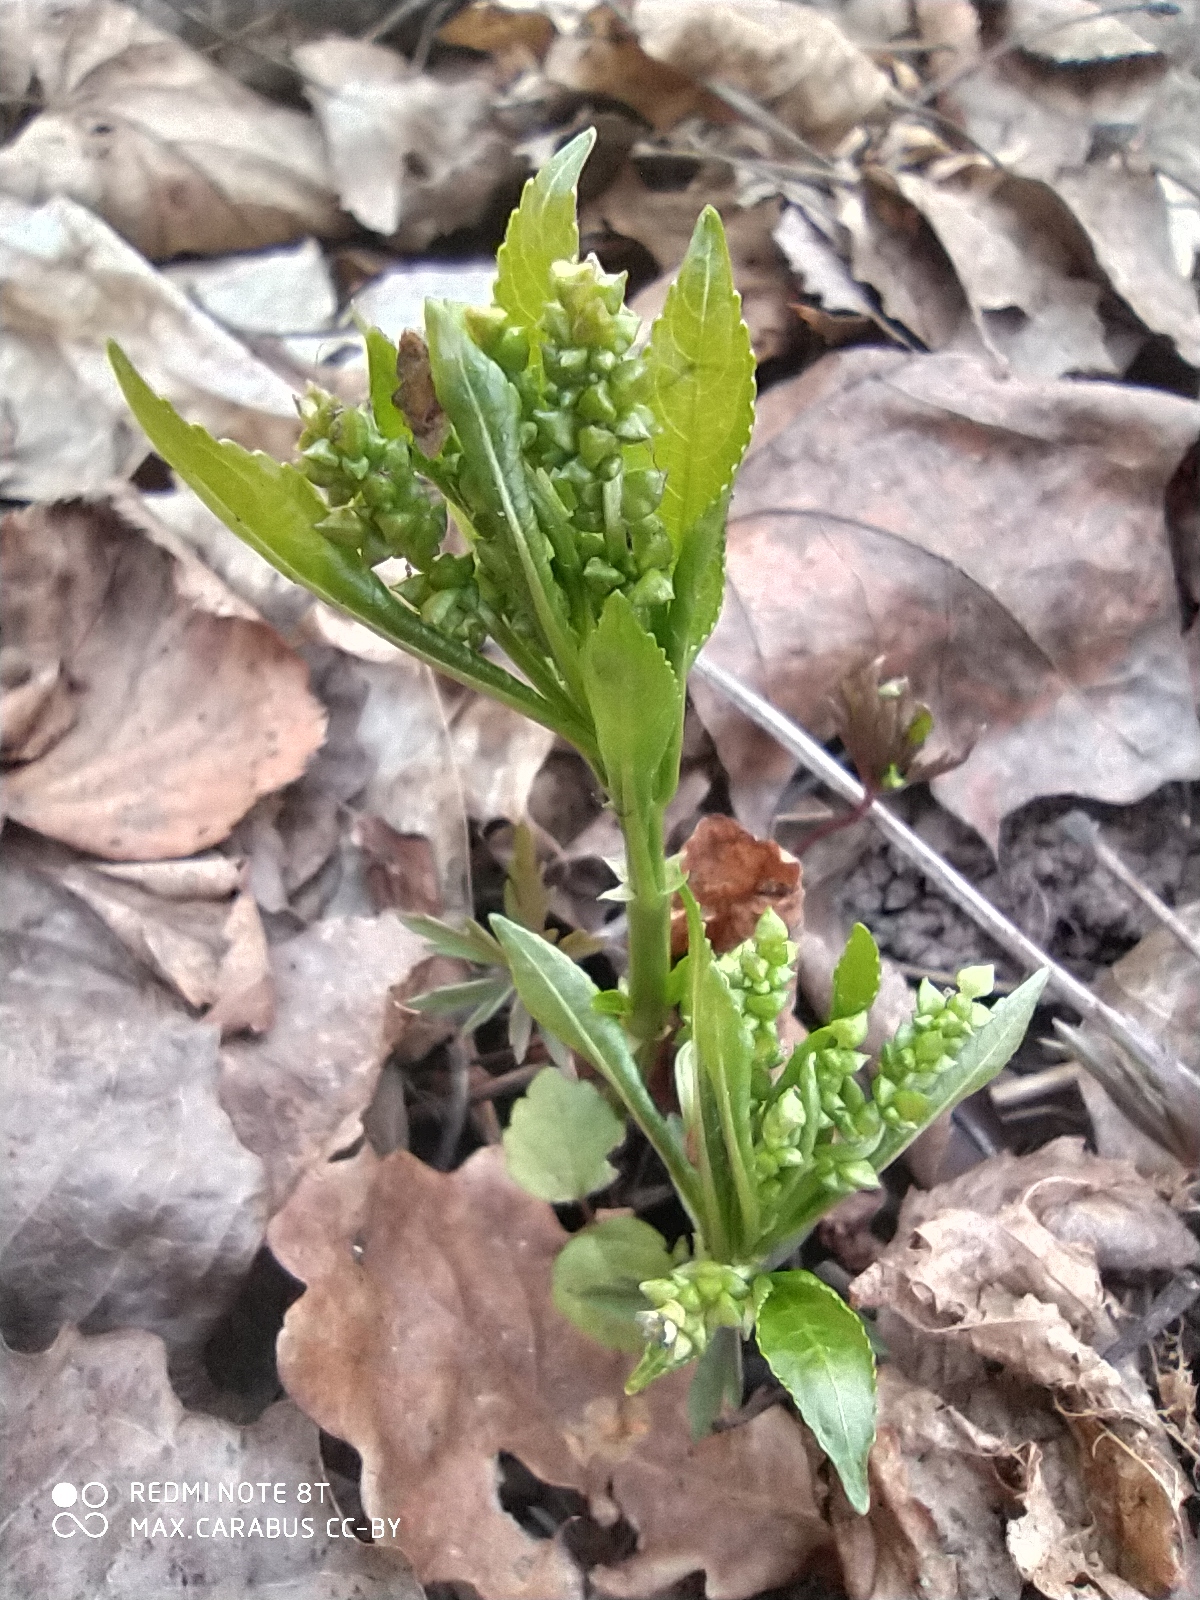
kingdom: Plantae
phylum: Tracheophyta
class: Magnoliopsida
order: Malpighiales
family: Euphorbiaceae
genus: Mercurialis
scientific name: Mercurialis perennis
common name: Dog mercury
